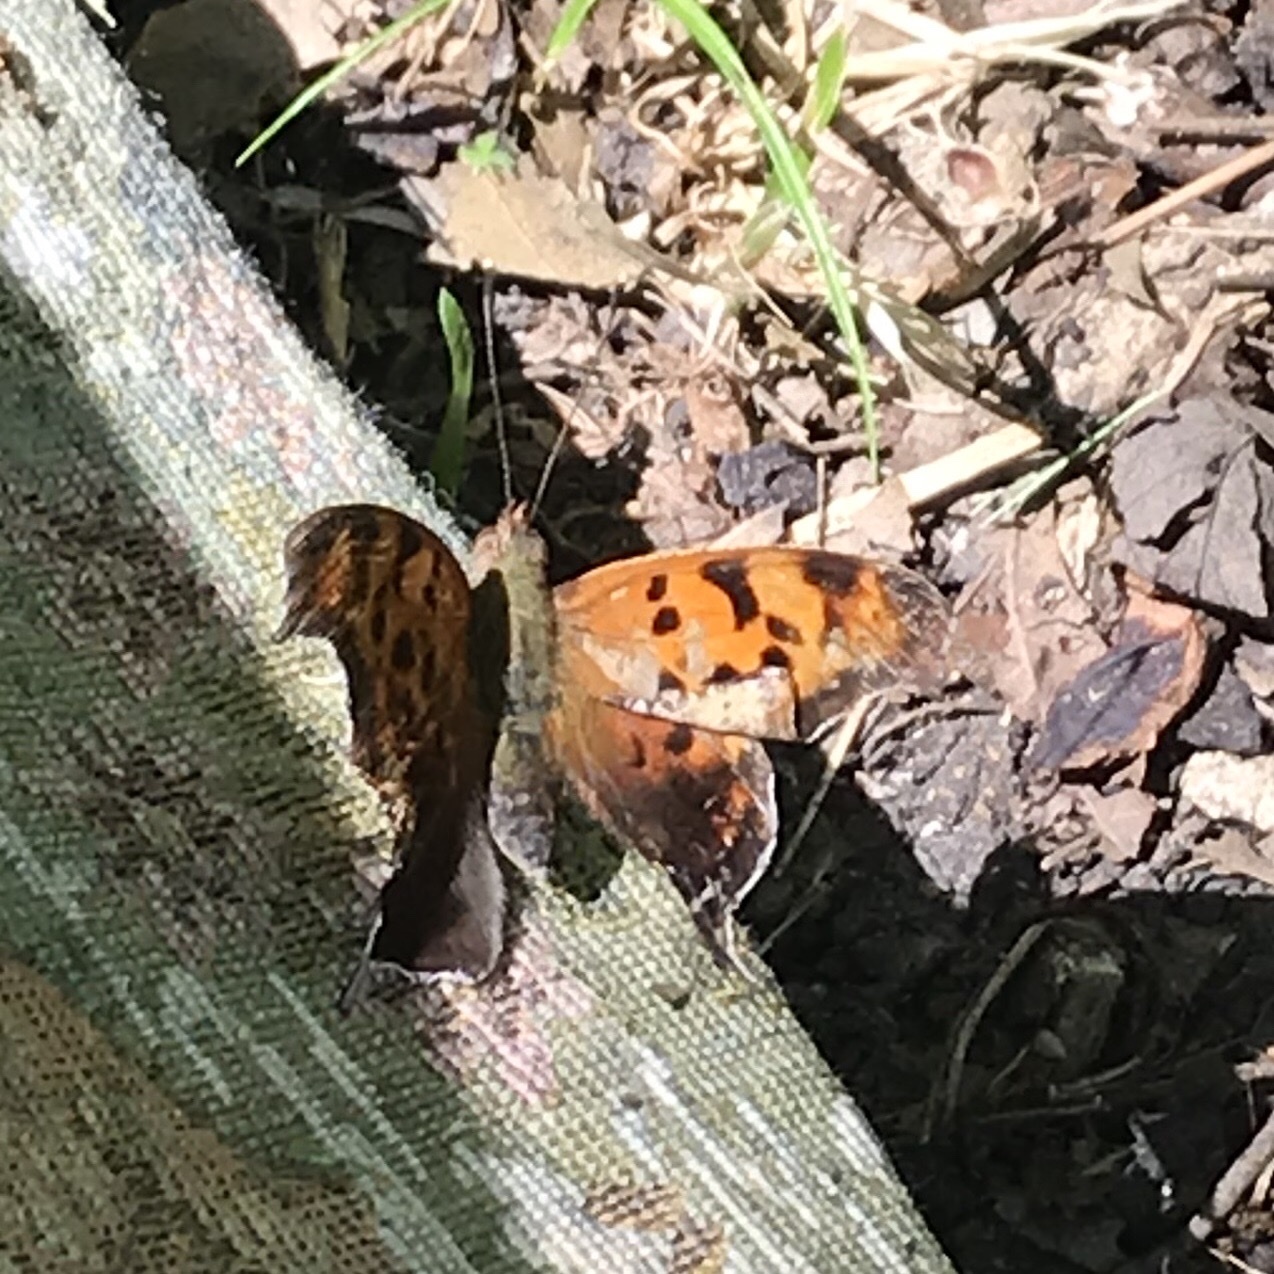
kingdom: Animalia
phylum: Arthropoda
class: Insecta
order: Lepidoptera
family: Nymphalidae
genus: Polygonia
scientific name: Polygonia interrogationis
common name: Question mark
